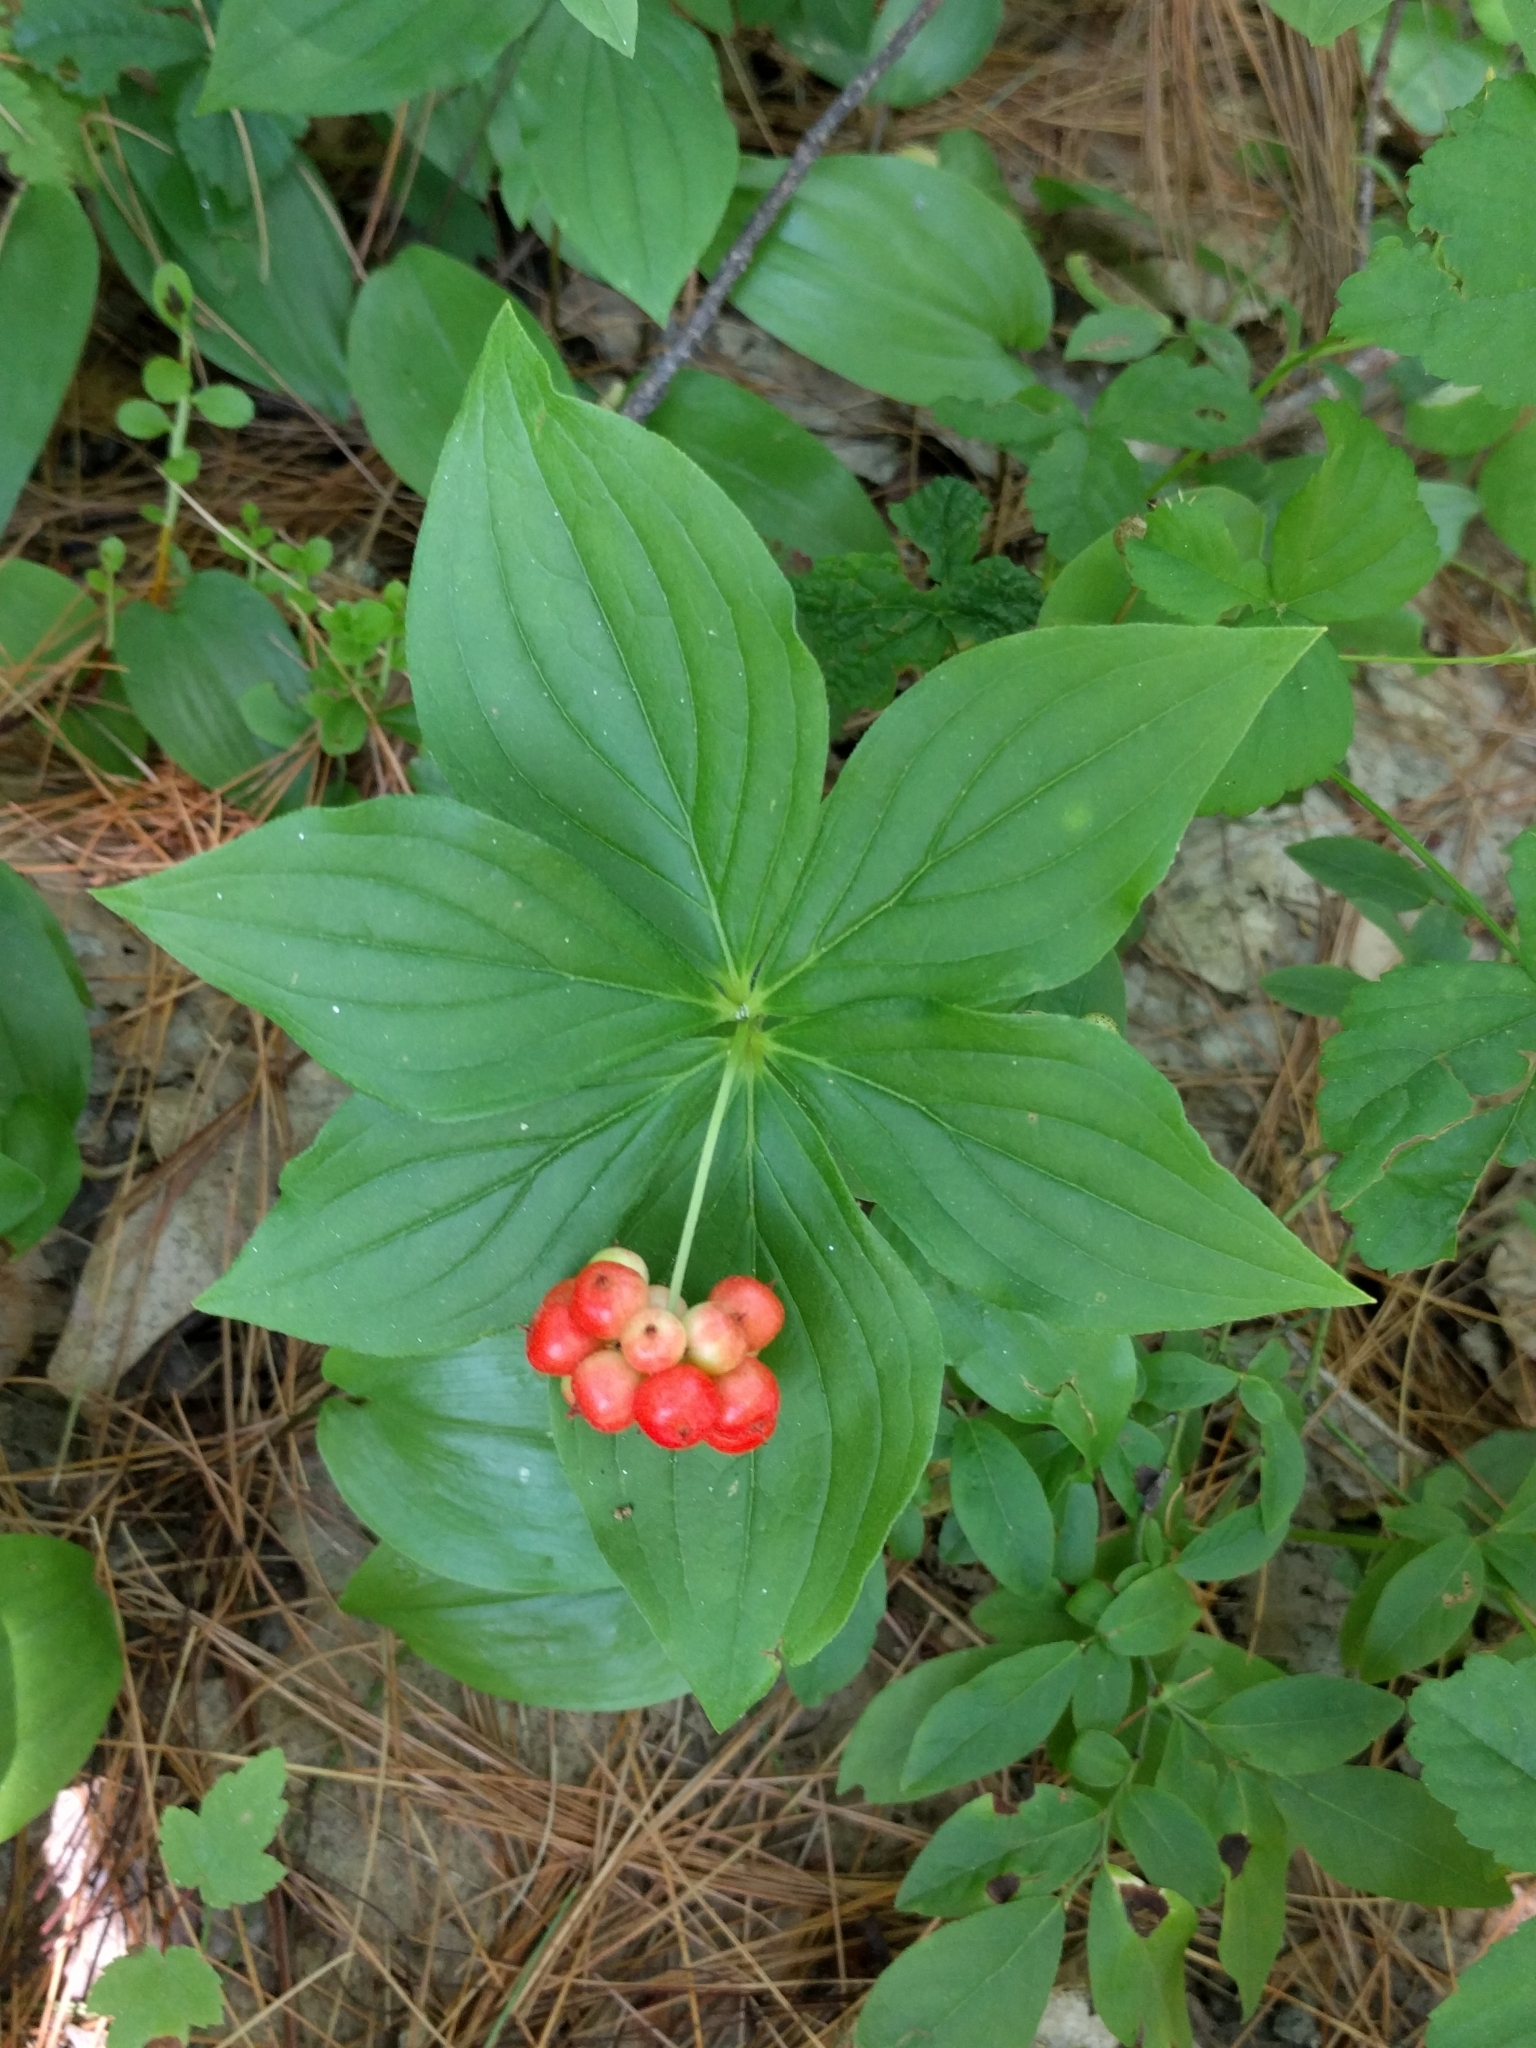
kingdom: Plantae
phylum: Tracheophyta
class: Magnoliopsida
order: Cornales
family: Cornaceae
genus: Cornus
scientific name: Cornus canadensis
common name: Creeping dogwood
